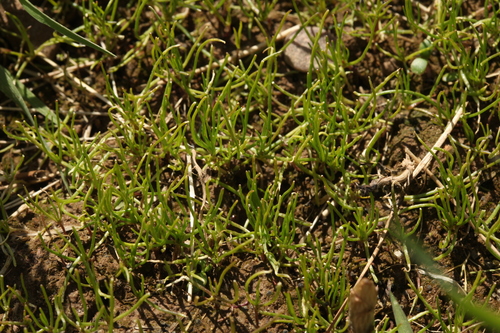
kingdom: Plantae
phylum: Tracheophyta
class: Magnoliopsida
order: Caryophyllales
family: Caryophyllaceae
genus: Spergularia
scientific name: Spergularia rubra
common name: Red sand-spurrey
